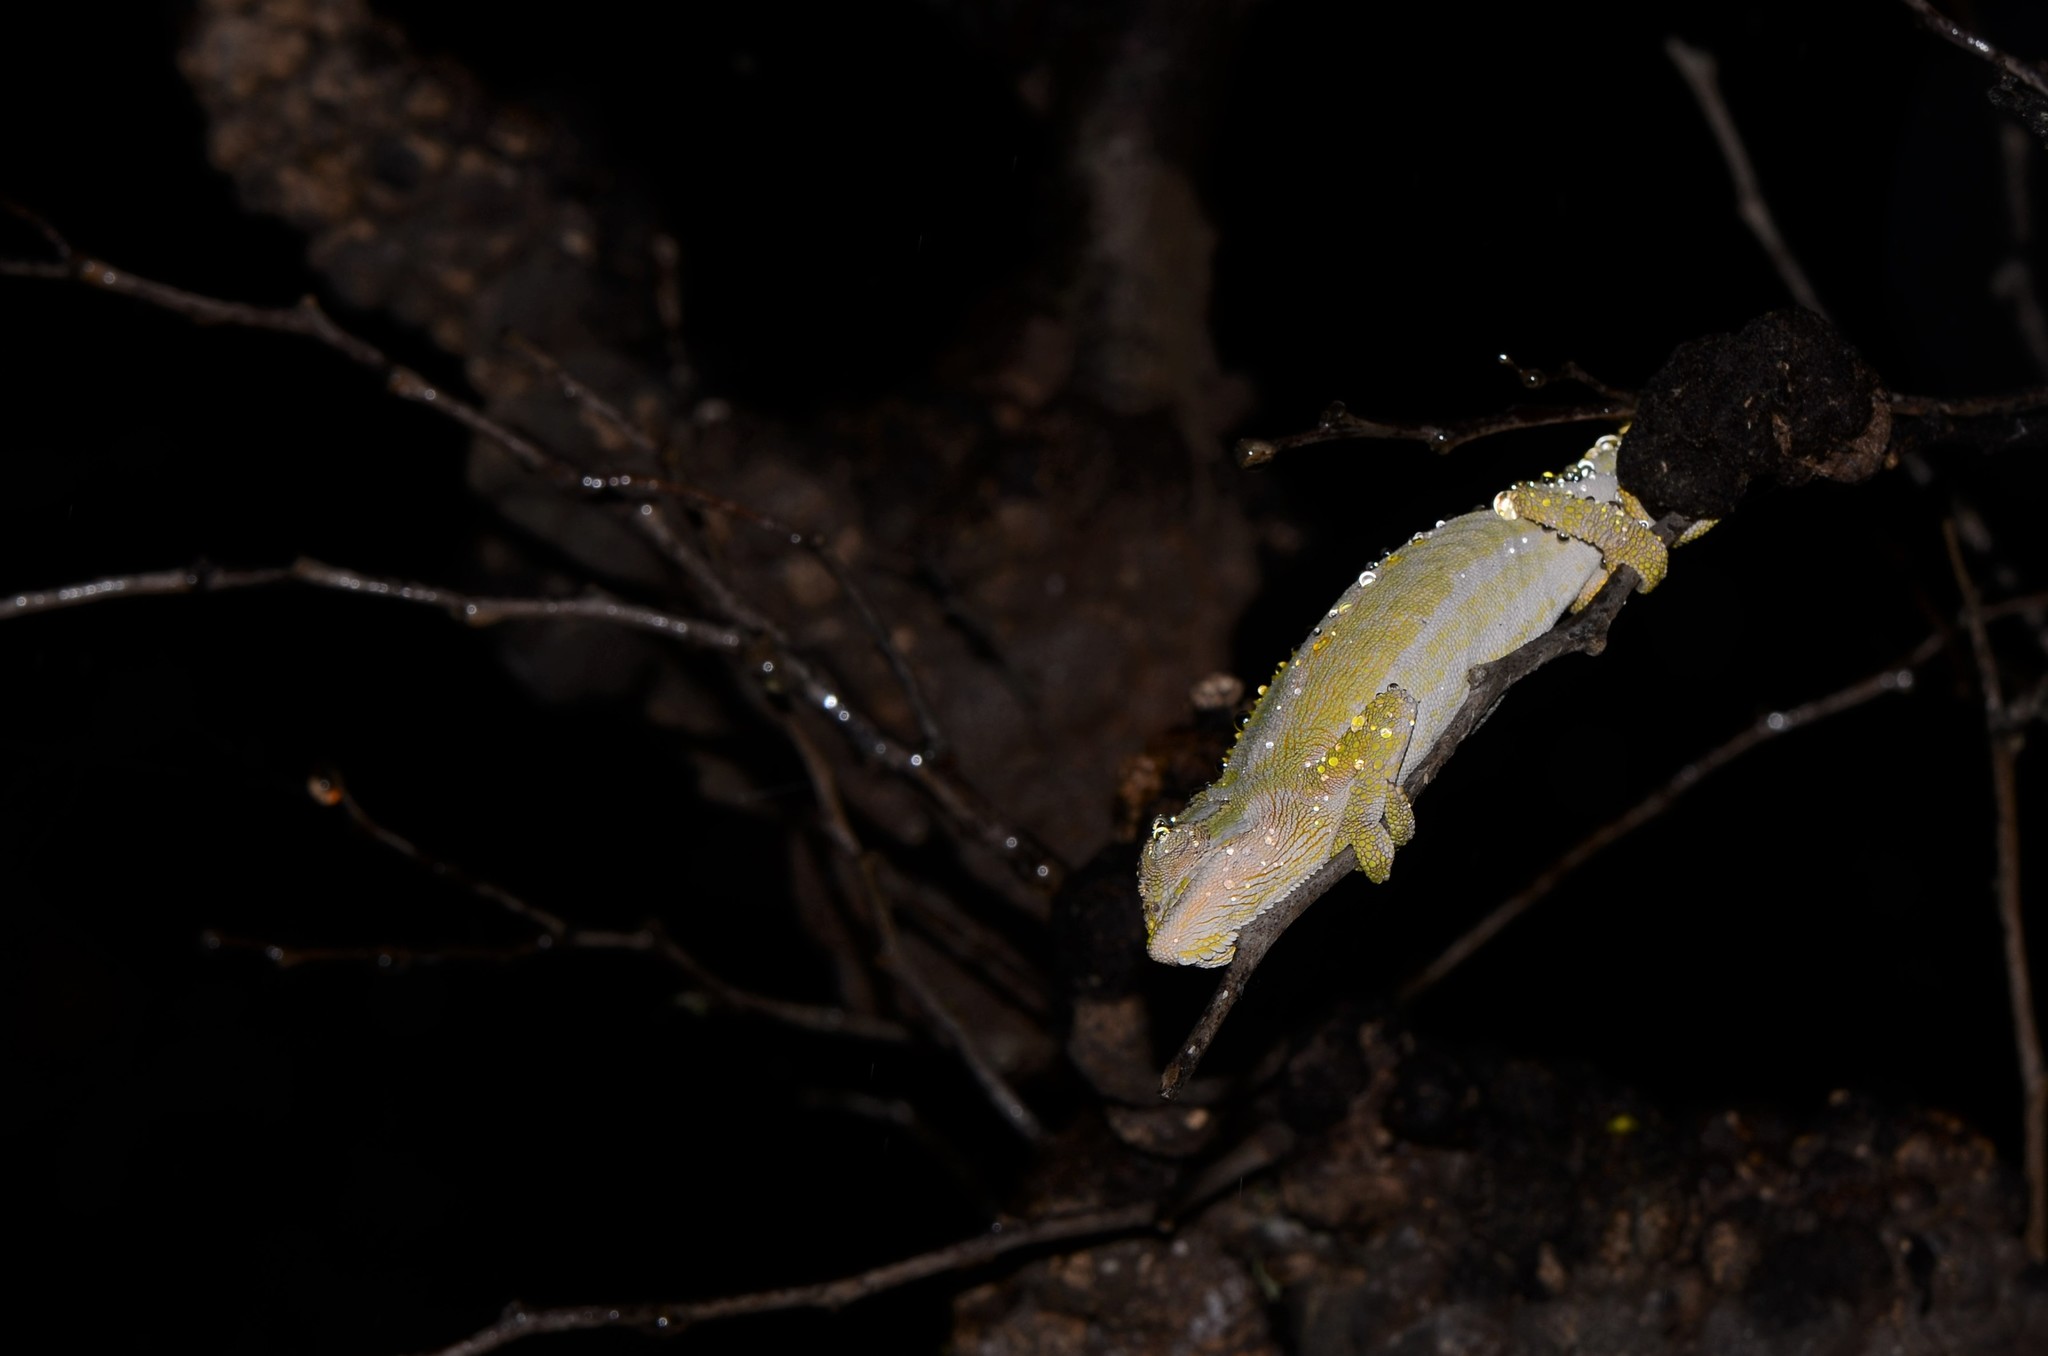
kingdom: Animalia
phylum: Chordata
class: Squamata
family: Chamaeleonidae
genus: Bradypodion
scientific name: Bradypodion pumilum
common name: Cape dwarf chameleon
